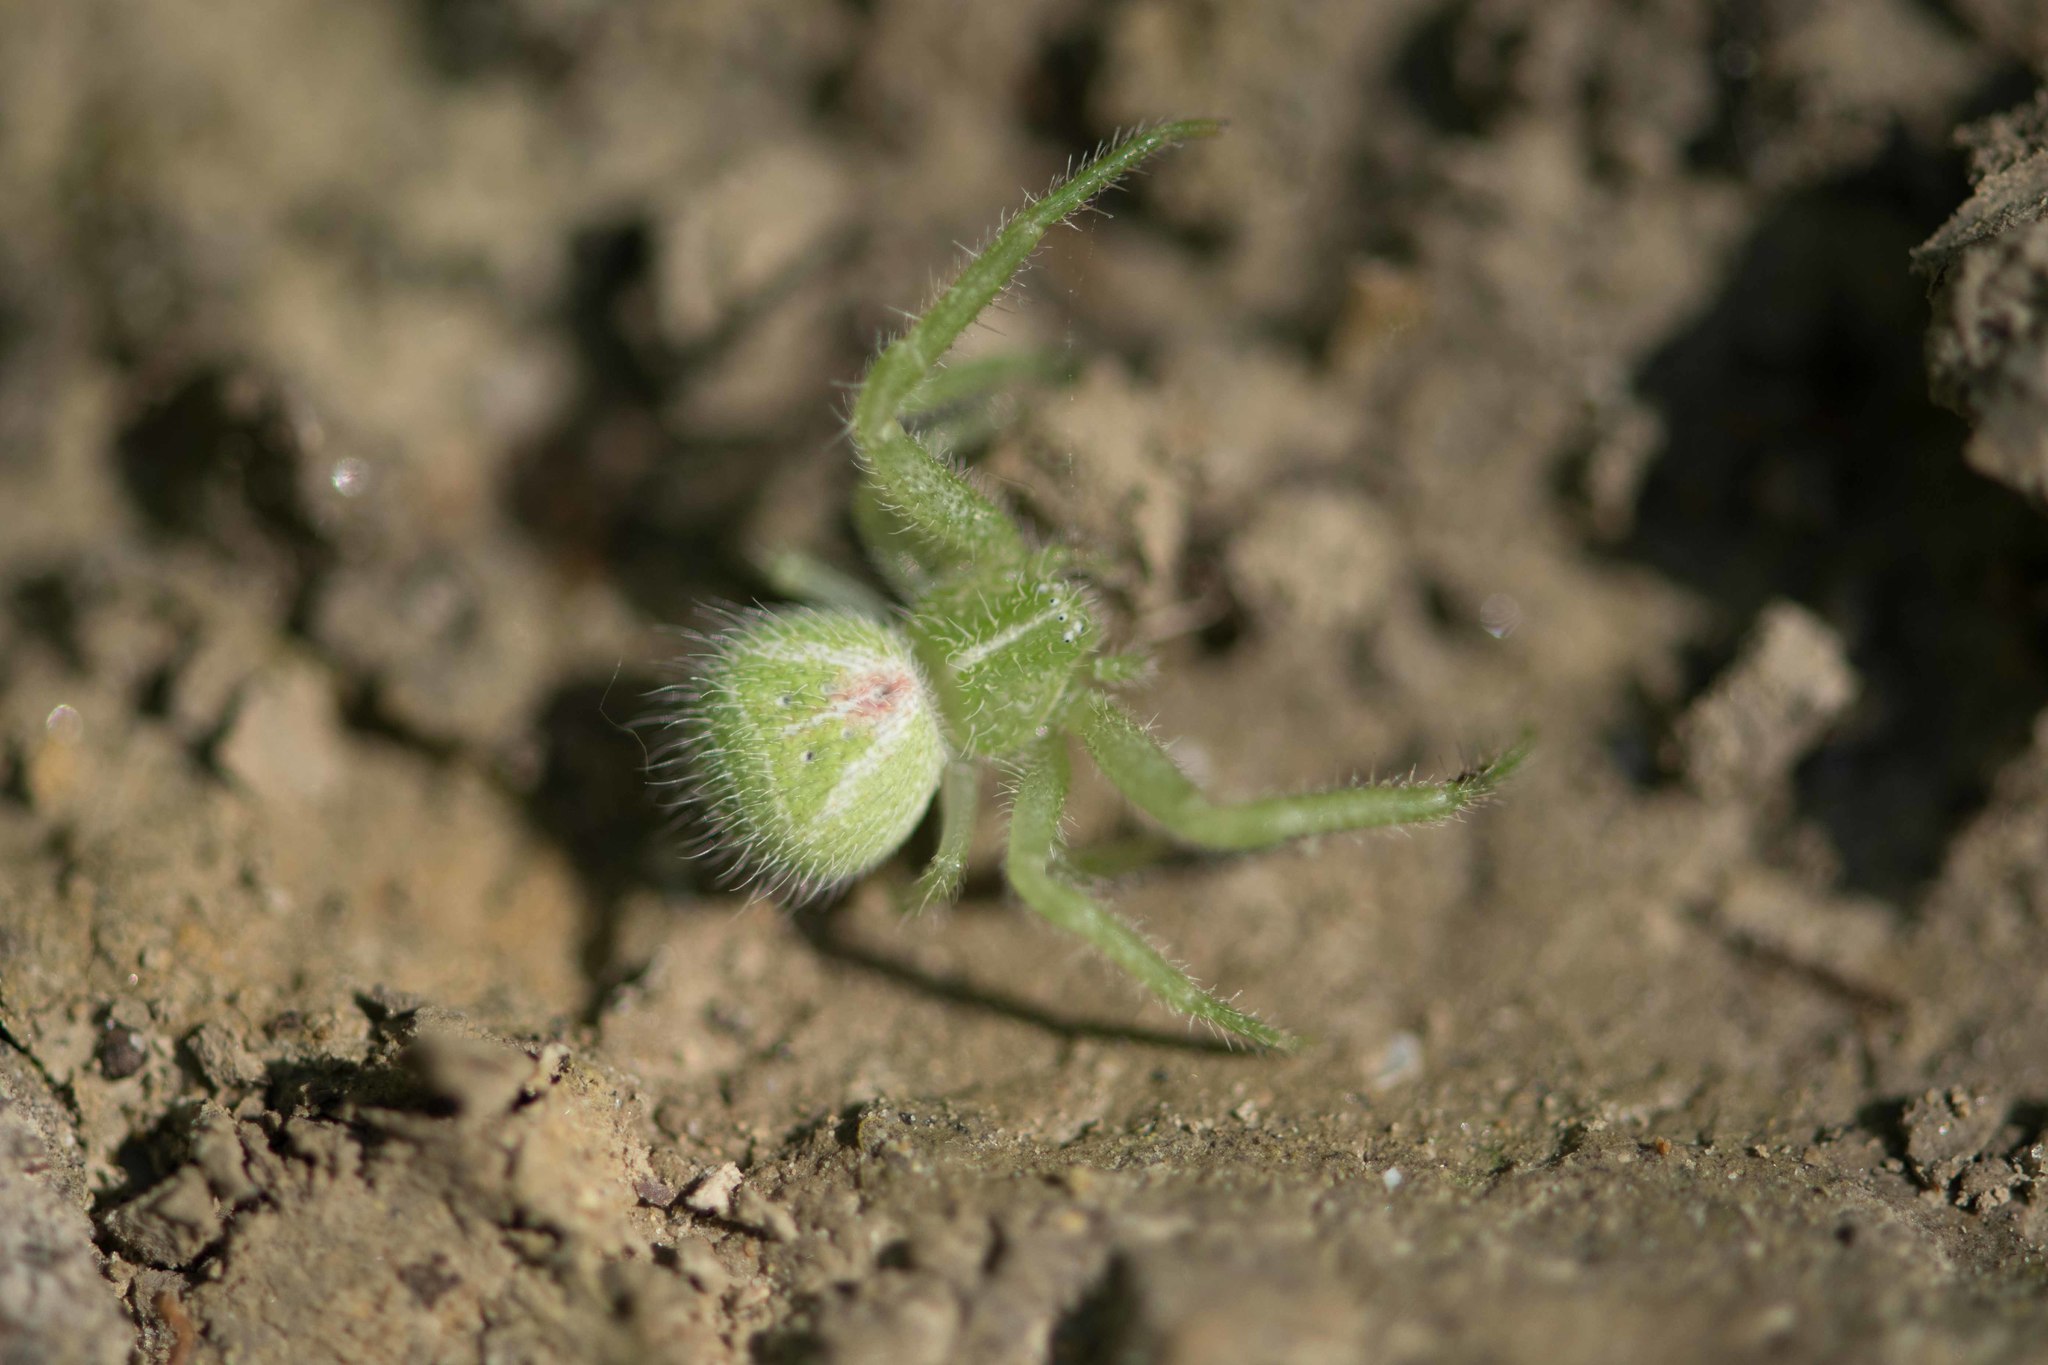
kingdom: Animalia
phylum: Arthropoda
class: Arachnida
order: Araneae
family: Thomisidae
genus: Heriaeus
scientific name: Heriaeus hirtus
